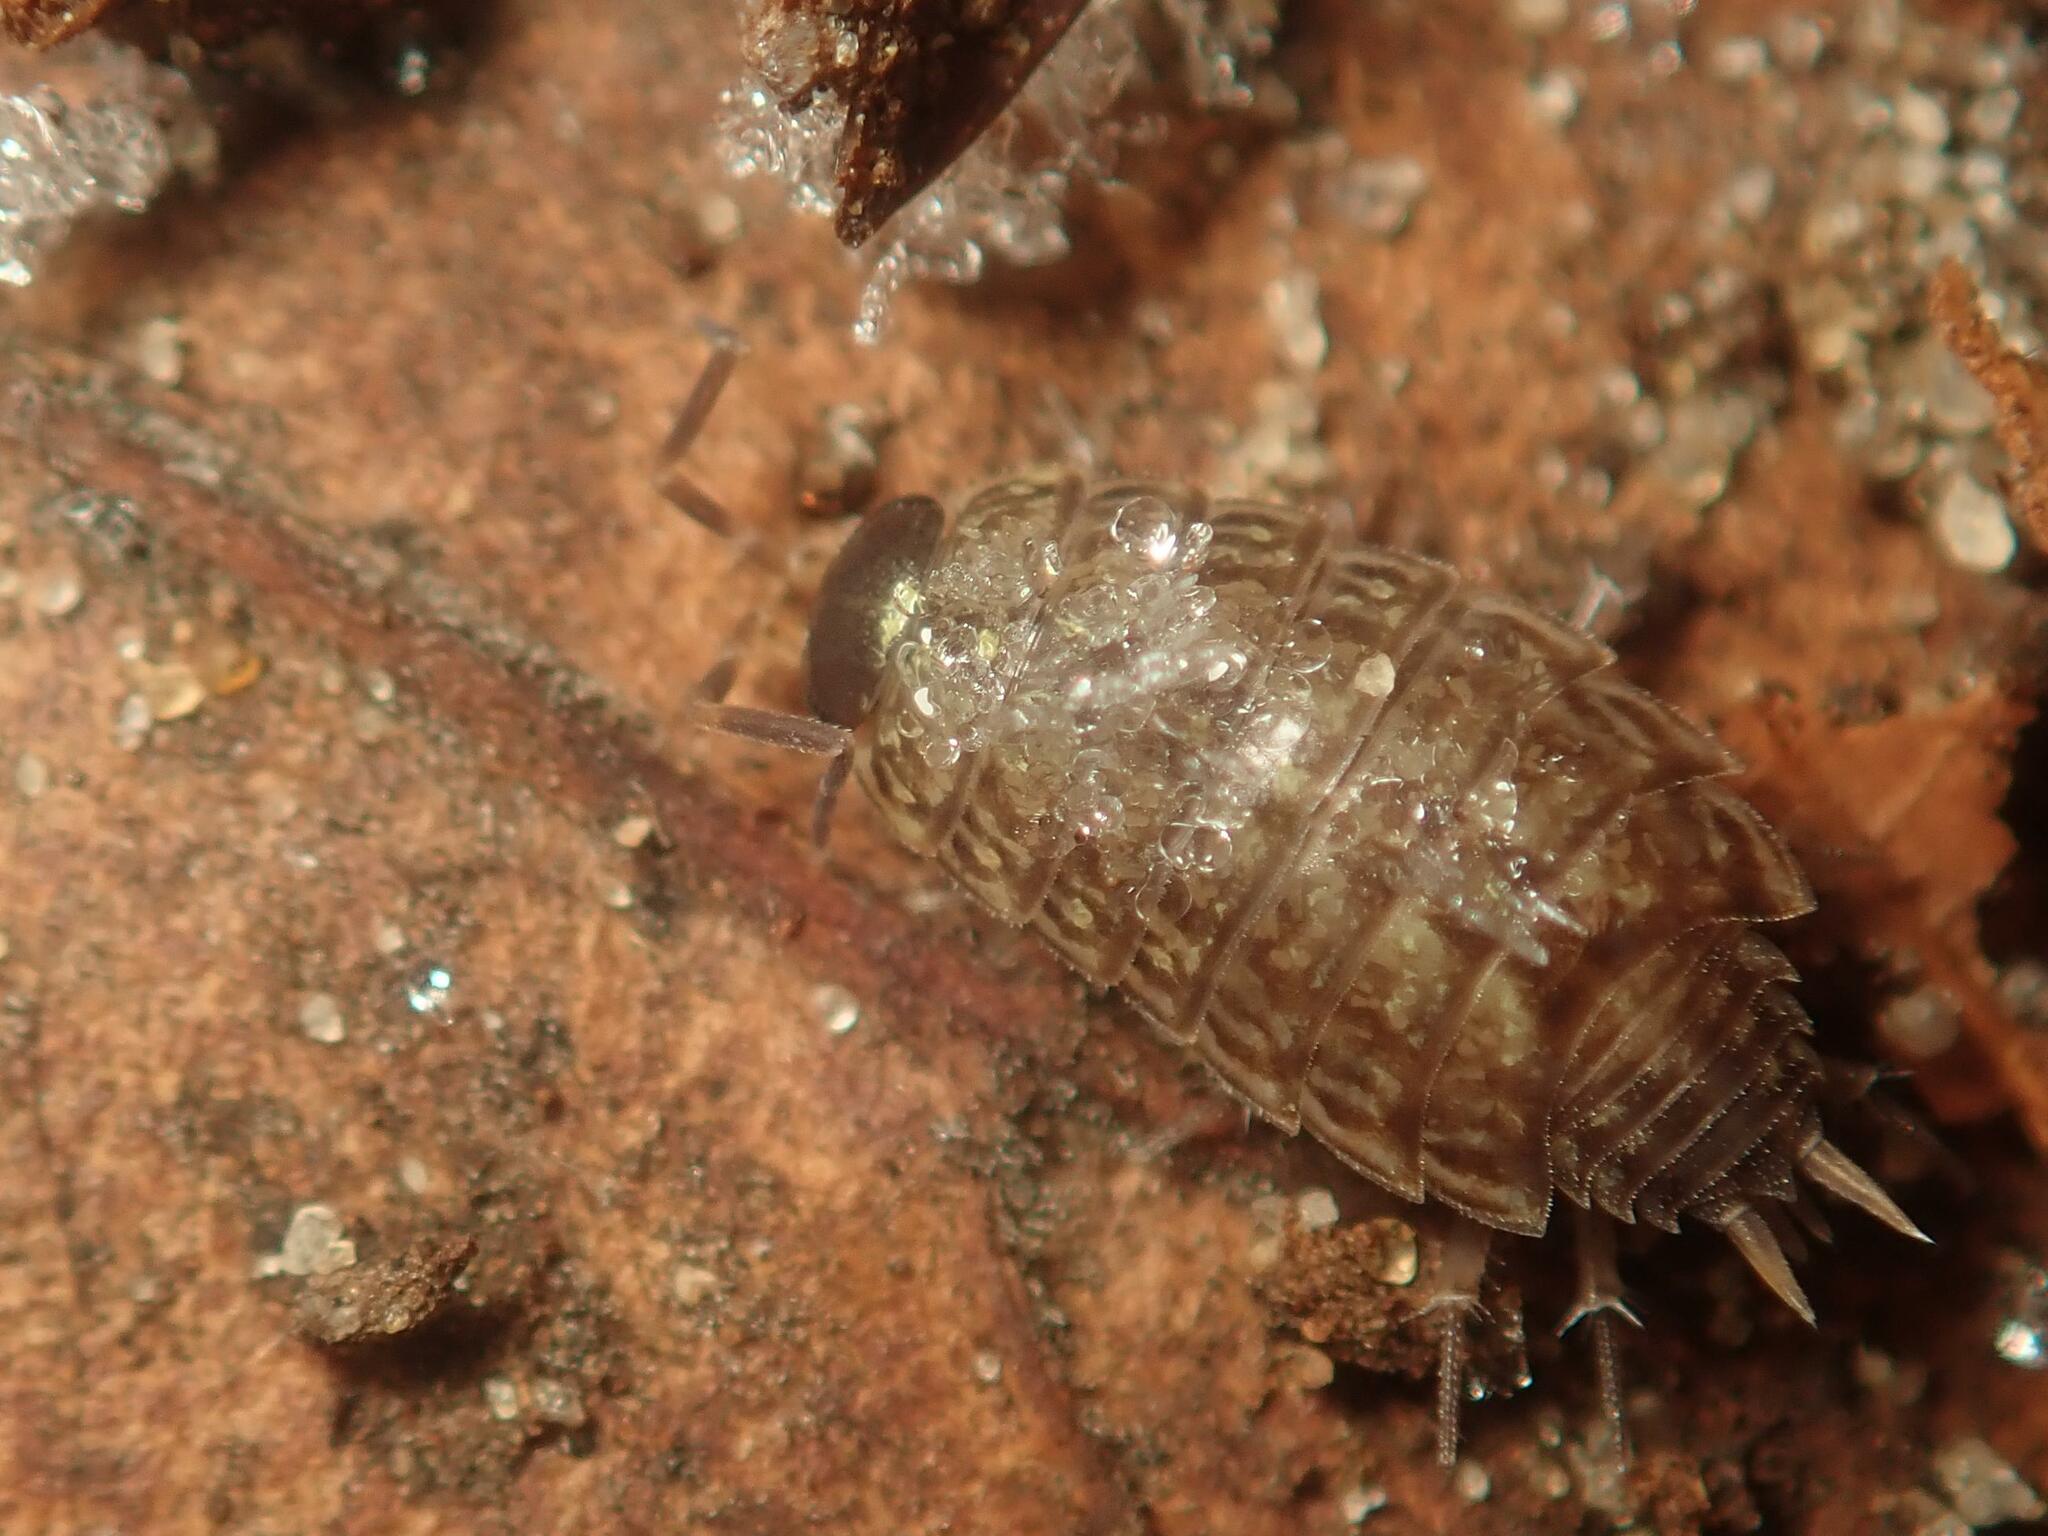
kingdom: Animalia
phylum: Arthropoda
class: Malacostraca
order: Isopoda
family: Philosciidae
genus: Philoscia
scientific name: Philoscia muscorum
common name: Common striped woodlouse
